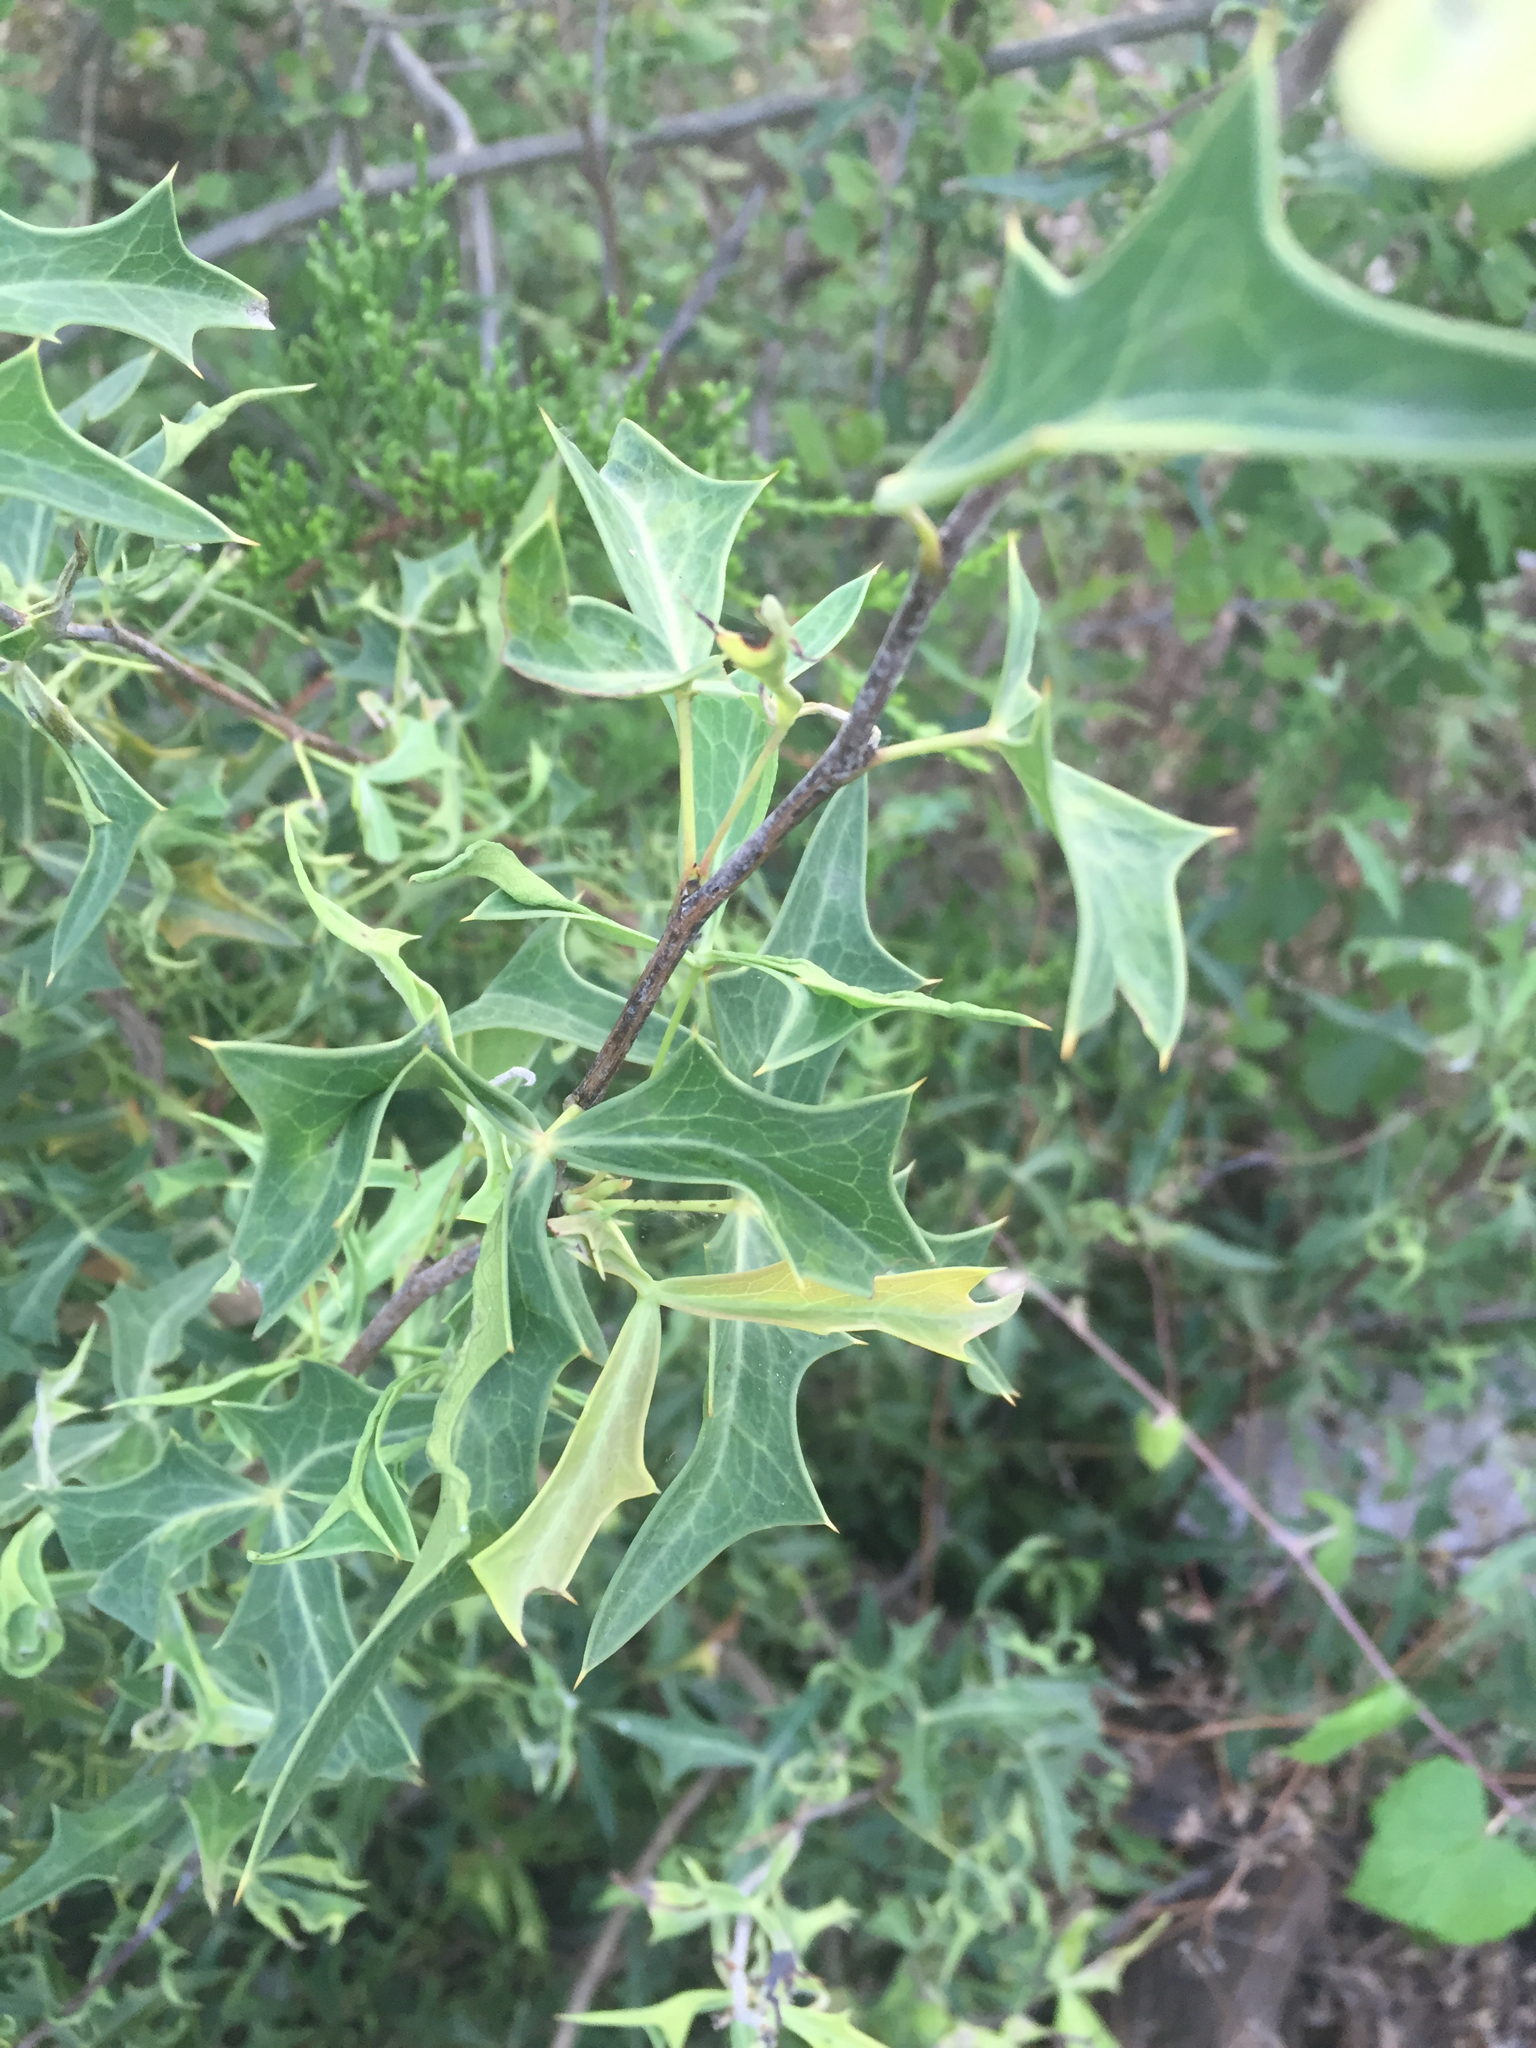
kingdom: Plantae
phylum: Tracheophyta
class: Magnoliopsida
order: Ranunculales
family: Berberidaceae
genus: Alloberberis
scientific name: Alloberberis trifoliolata
